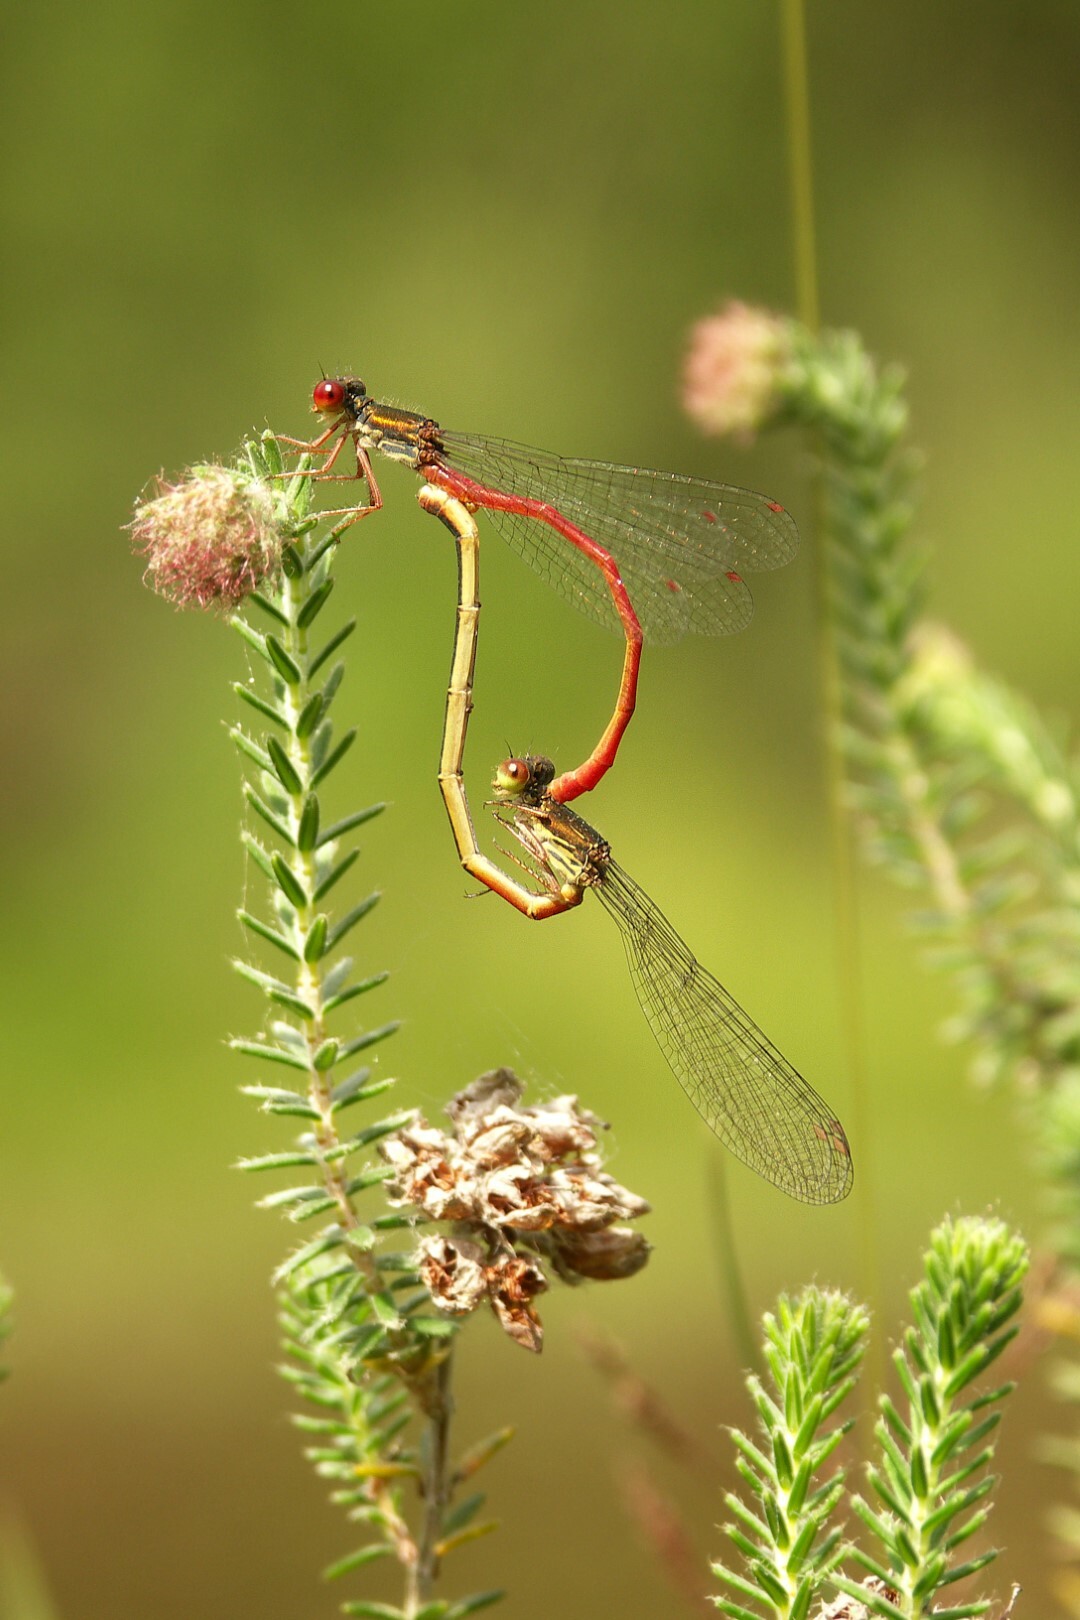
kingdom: Animalia
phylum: Arthropoda
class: Insecta
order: Odonata
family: Coenagrionidae
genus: Ceriagrion
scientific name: Ceriagrion tenellum
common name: Small red damselfly
